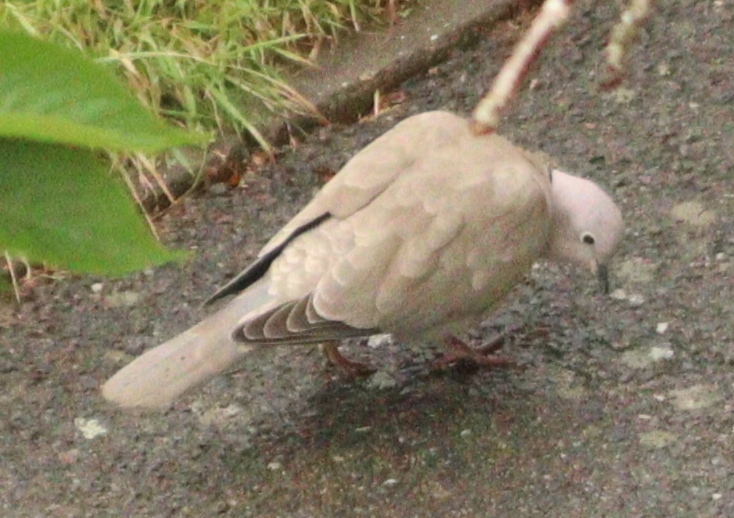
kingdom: Animalia
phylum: Chordata
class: Aves
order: Columbiformes
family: Columbidae
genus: Streptopelia
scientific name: Streptopelia decaocto
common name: Eurasian collared dove
